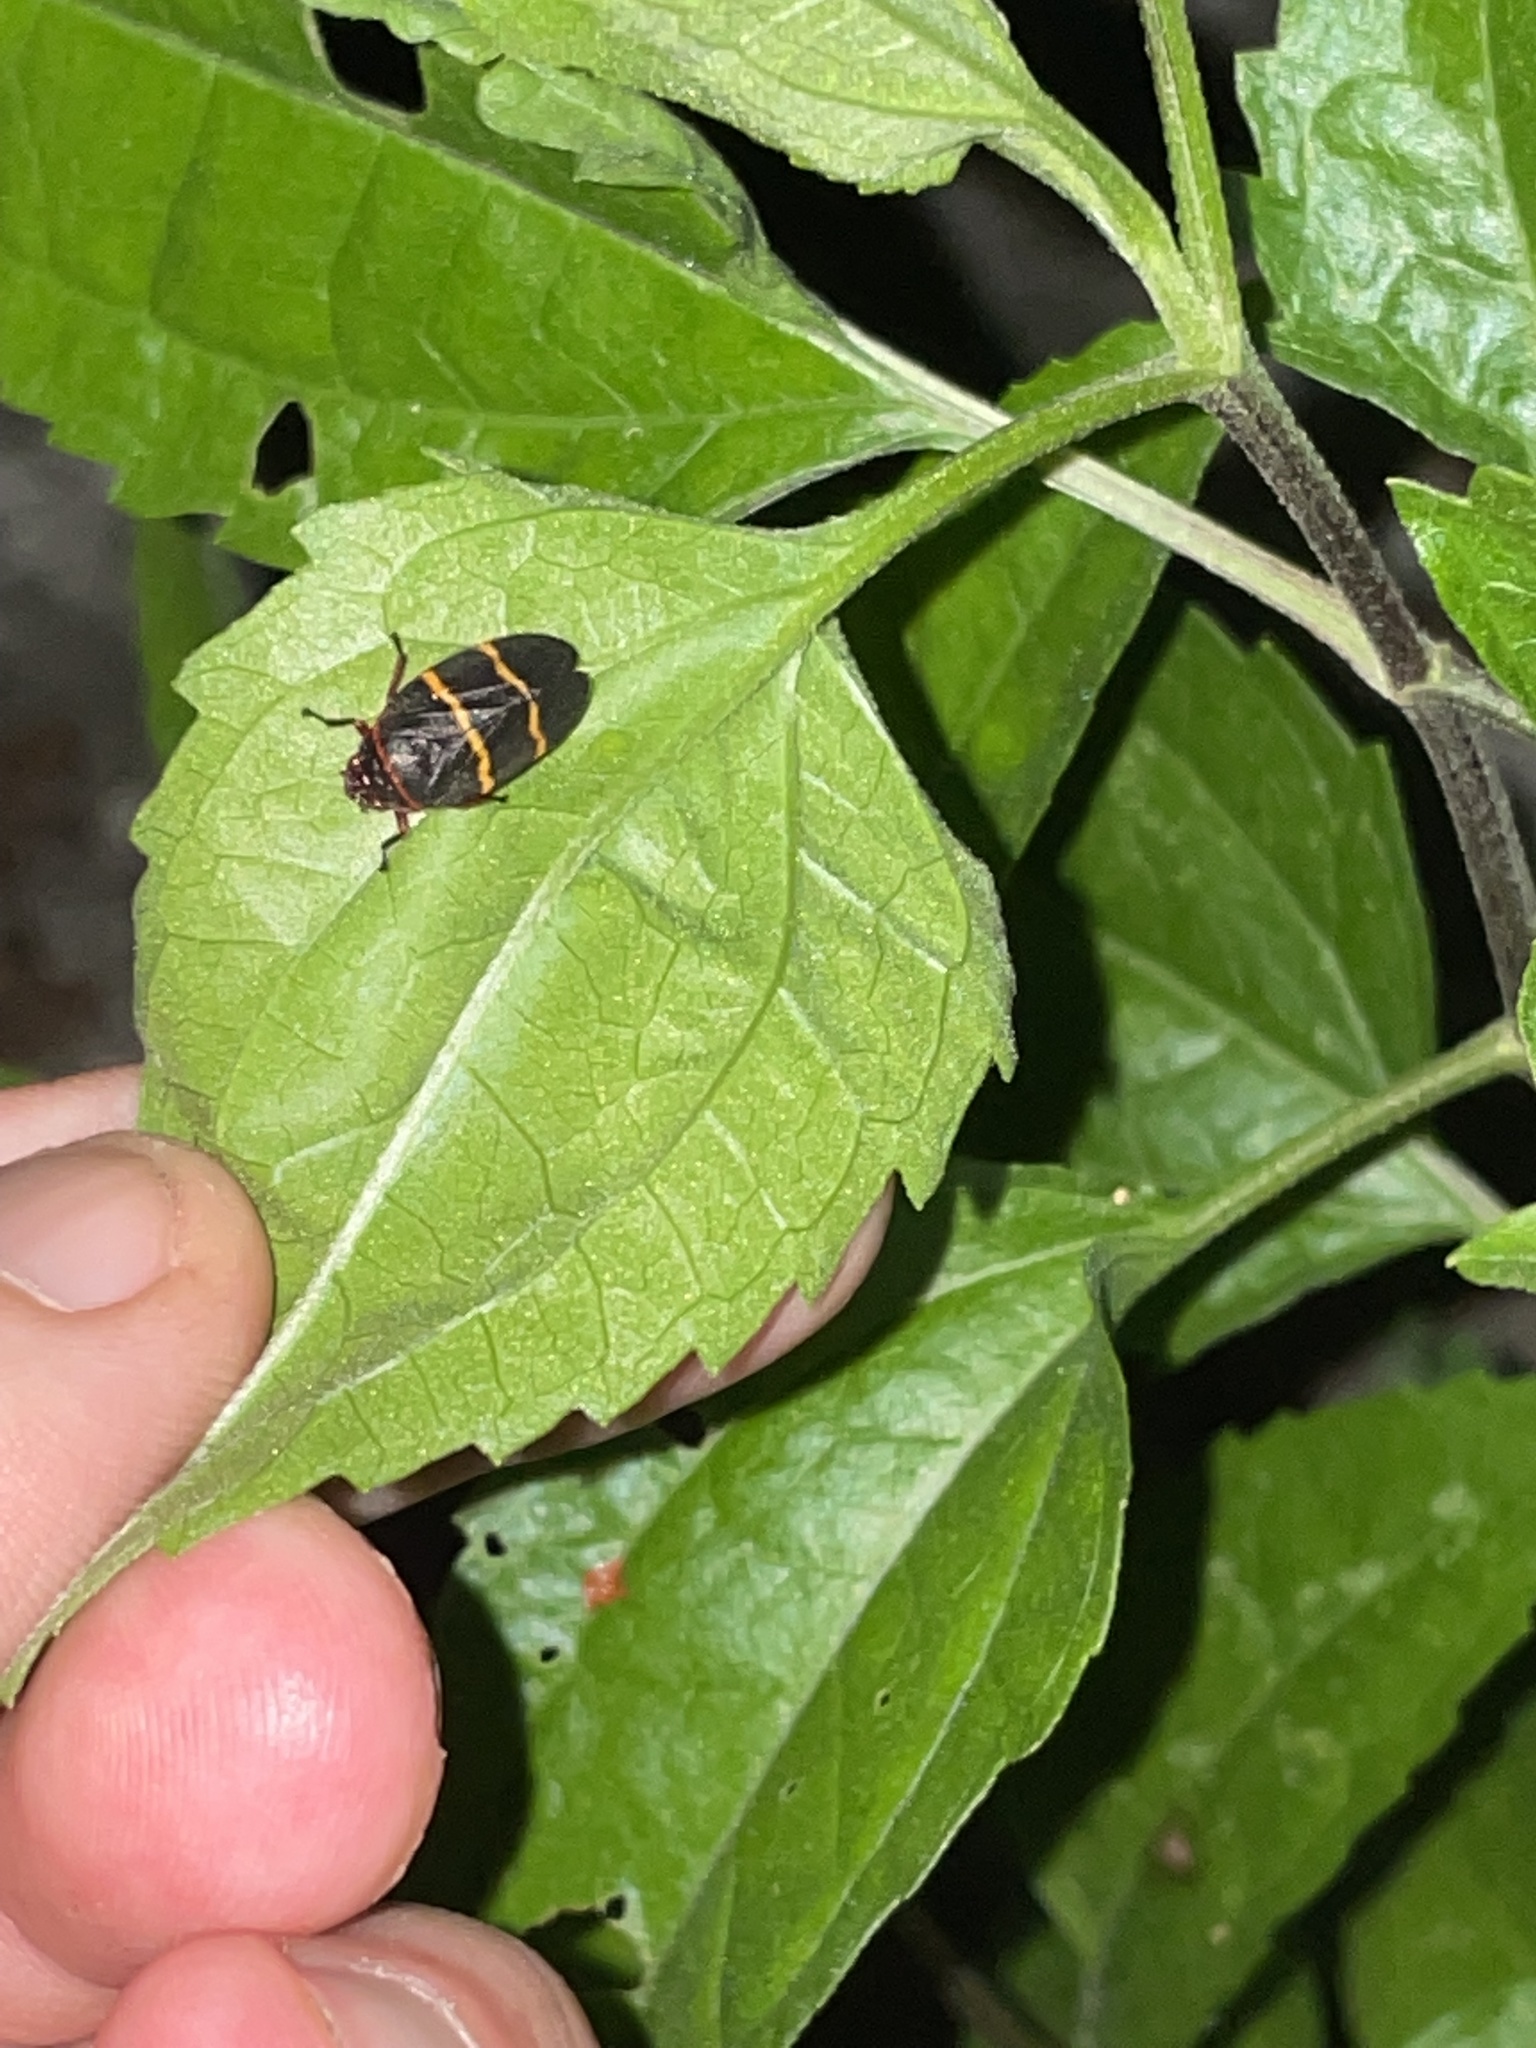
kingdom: Animalia
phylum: Arthropoda
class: Insecta
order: Hemiptera
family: Cercopidae
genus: Prosapia
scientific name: Prosapia bicincta
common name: Twolined spittlebug
